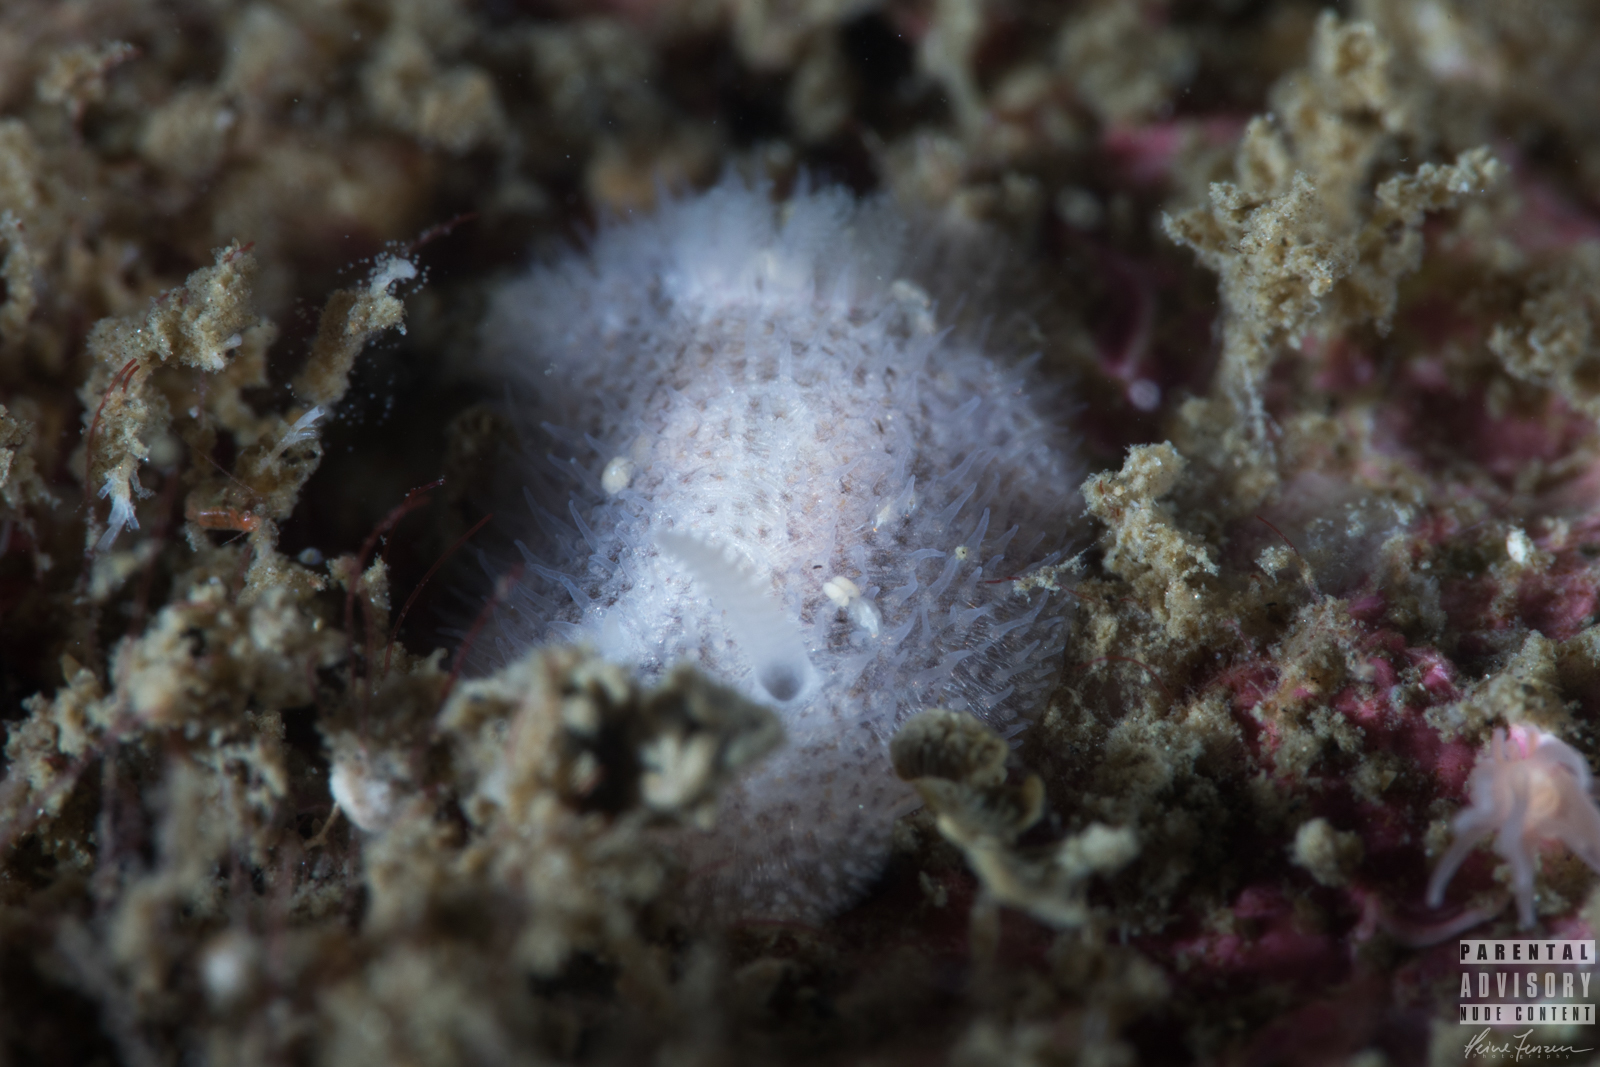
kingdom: Animalia
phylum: Mollusca
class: Gastropoda
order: Nudibranchia
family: Onchidorididae
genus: Idaliadoris
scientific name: Idaliadoris depressa
